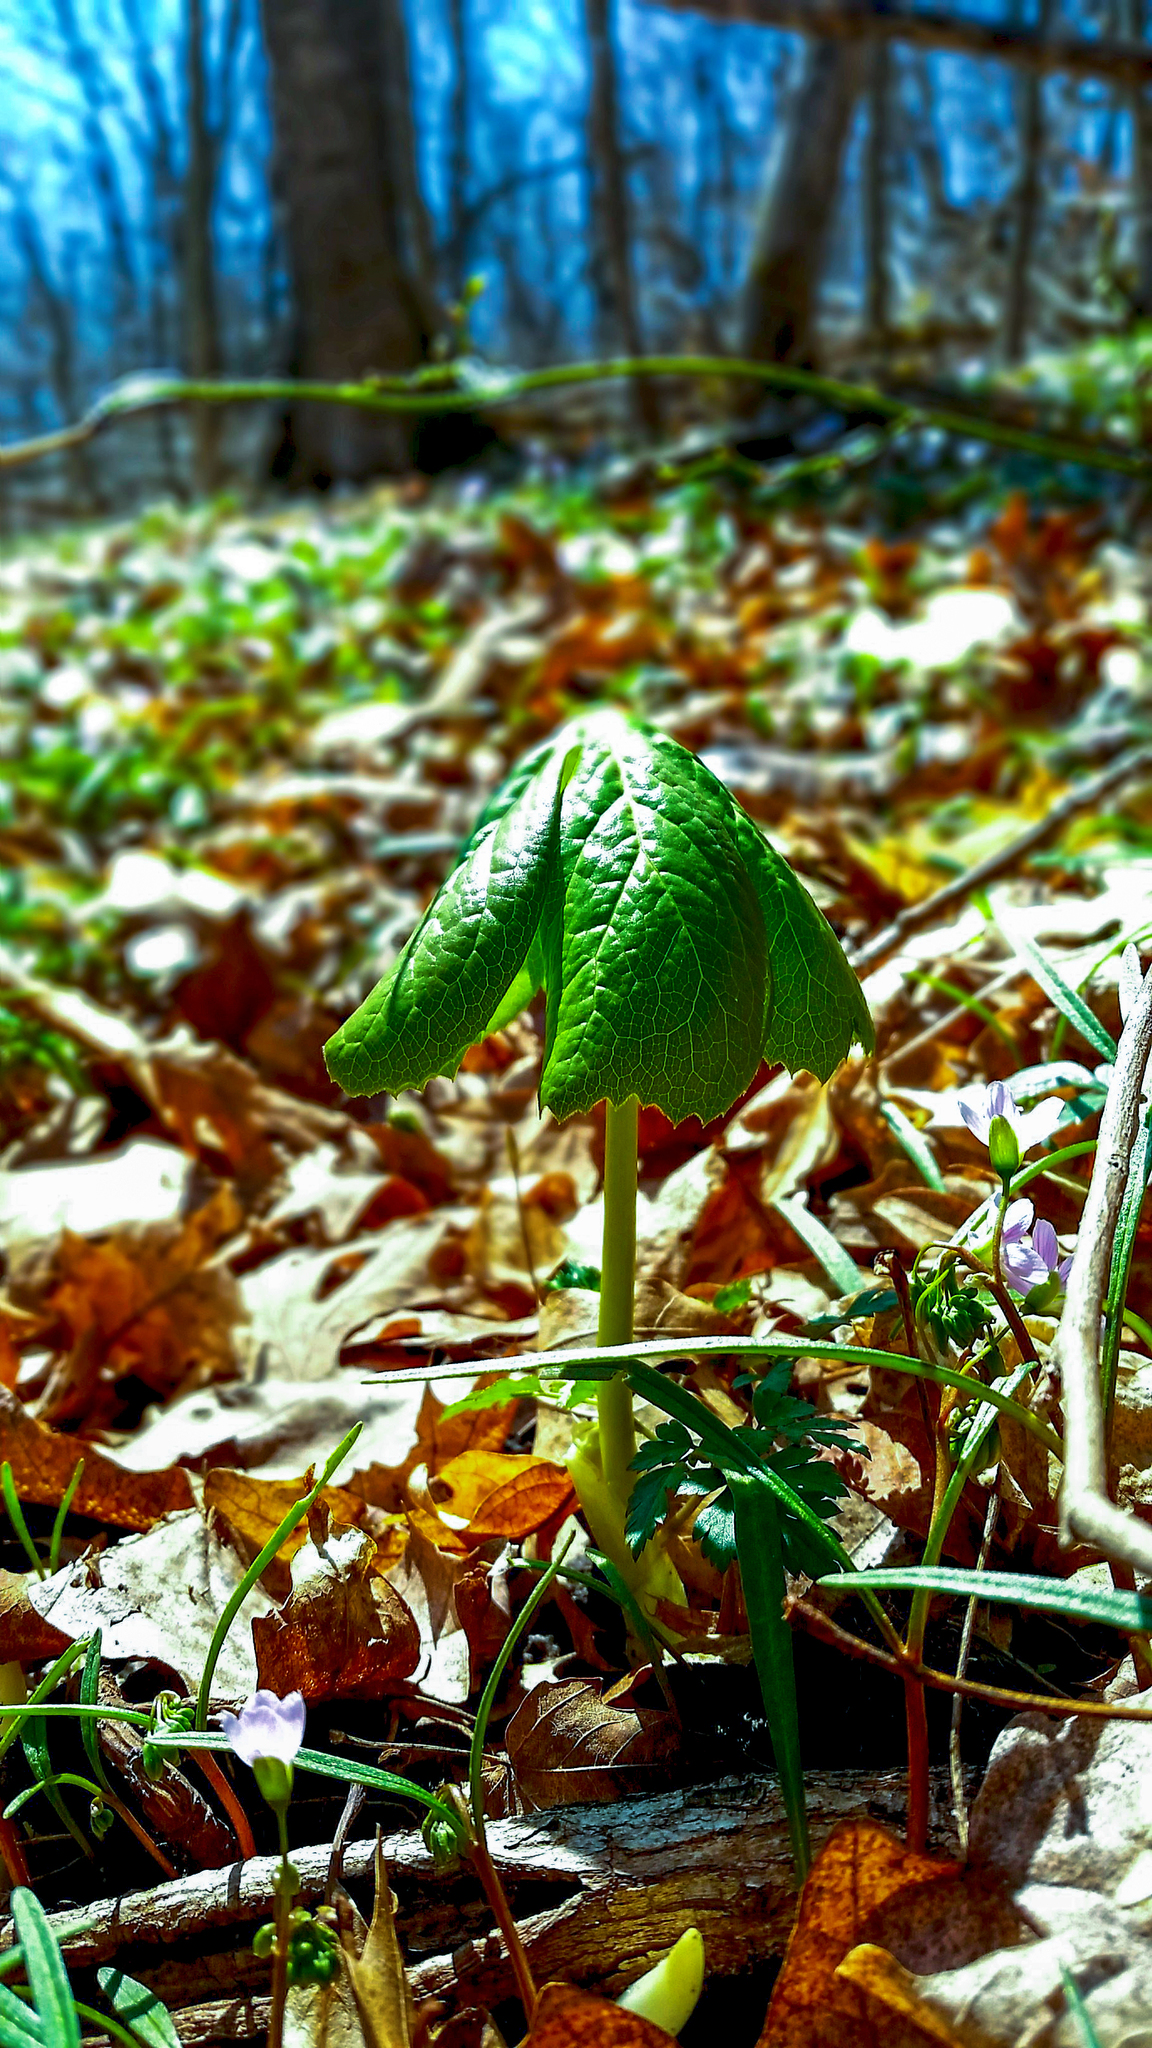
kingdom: Plantae
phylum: Tracheophyta
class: Magnoliopsida
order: Ranunculales
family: Berberidaceae
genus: Podophyllum
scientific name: Podophyllum peltatum
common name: Wild mandrake
